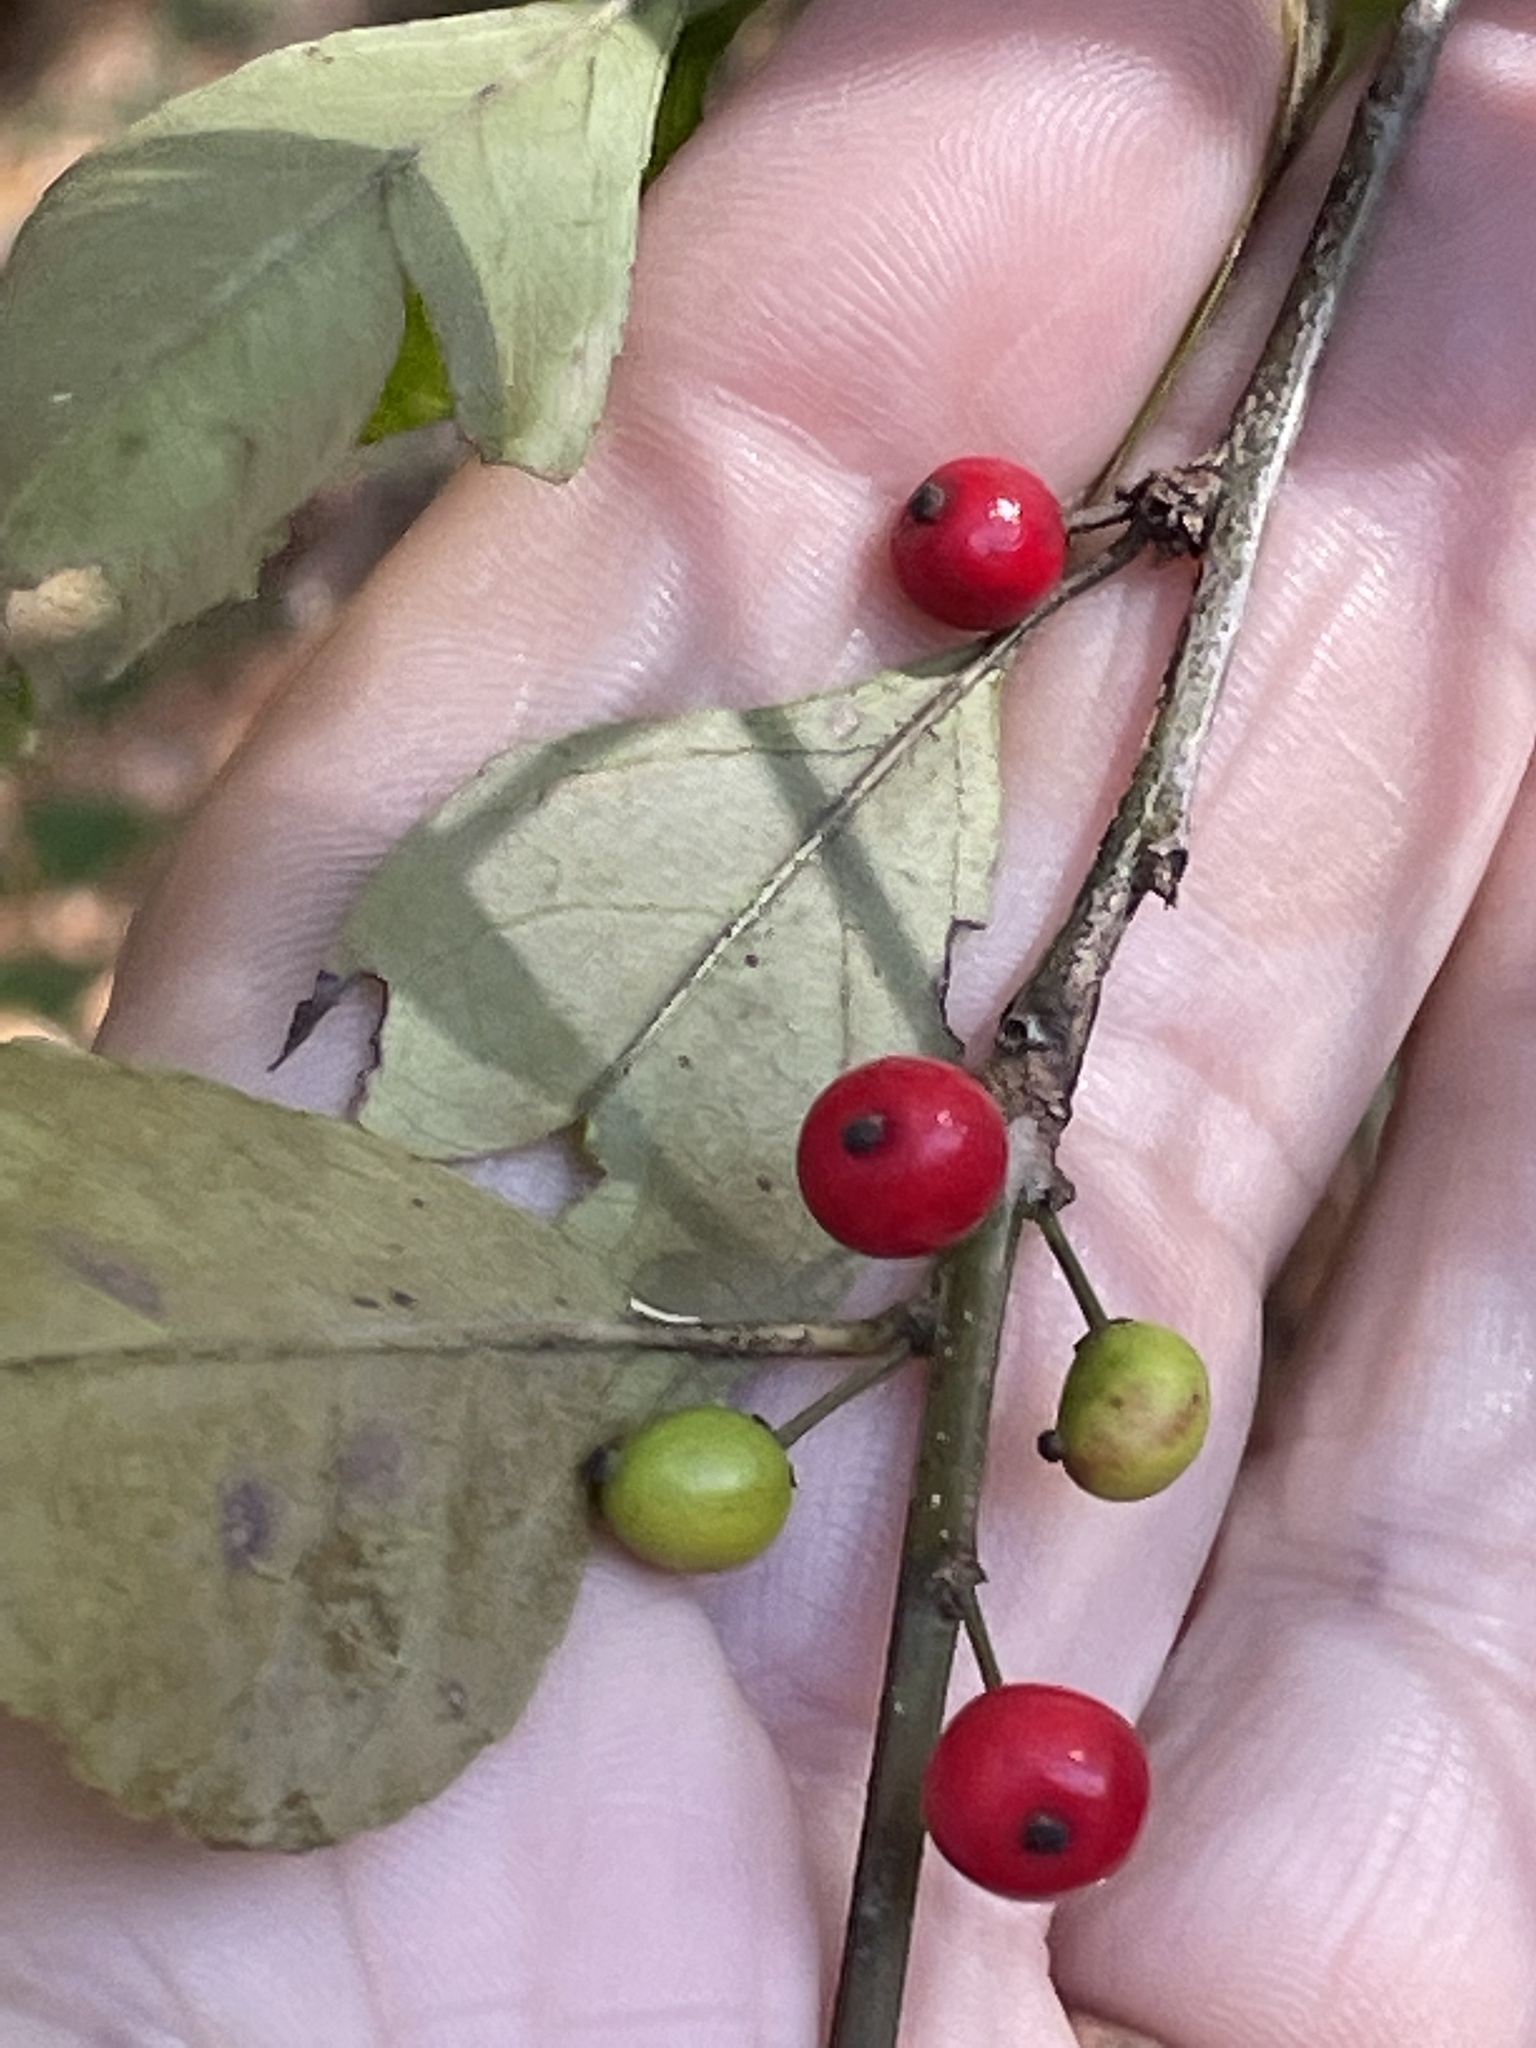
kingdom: Plantae
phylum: Tracheophyta
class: Magnoliopsida
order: Aquifoliales
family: Aquifoliaceae
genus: Ilex
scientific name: Ilex decidua
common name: Possum-haw
